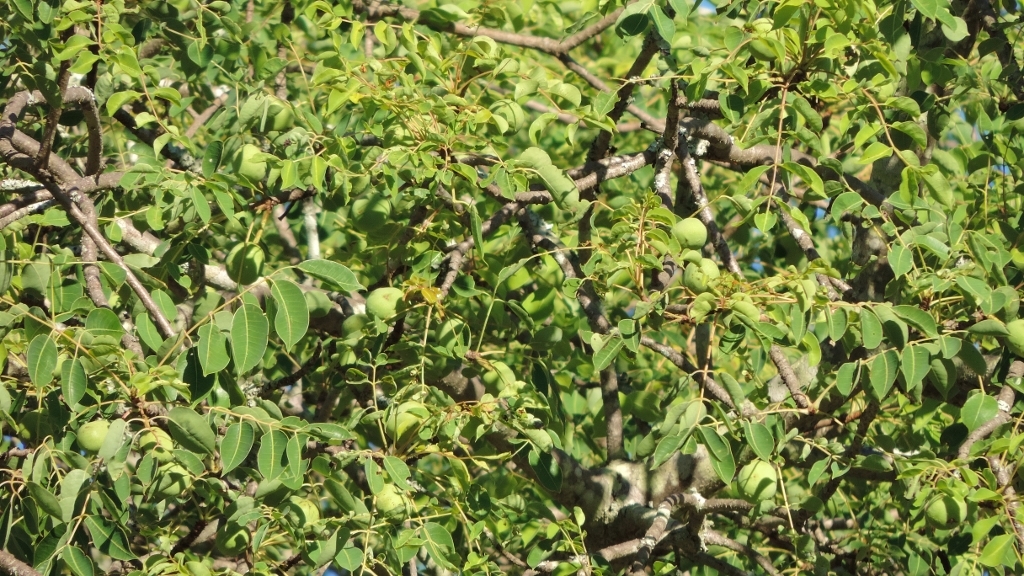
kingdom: Plantae
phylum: Tracheophyta
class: Magnoliopsida
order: Sapindales
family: Anacardiaceae
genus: Sclerocarya
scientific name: Sclerocarya birrea
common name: Marula
